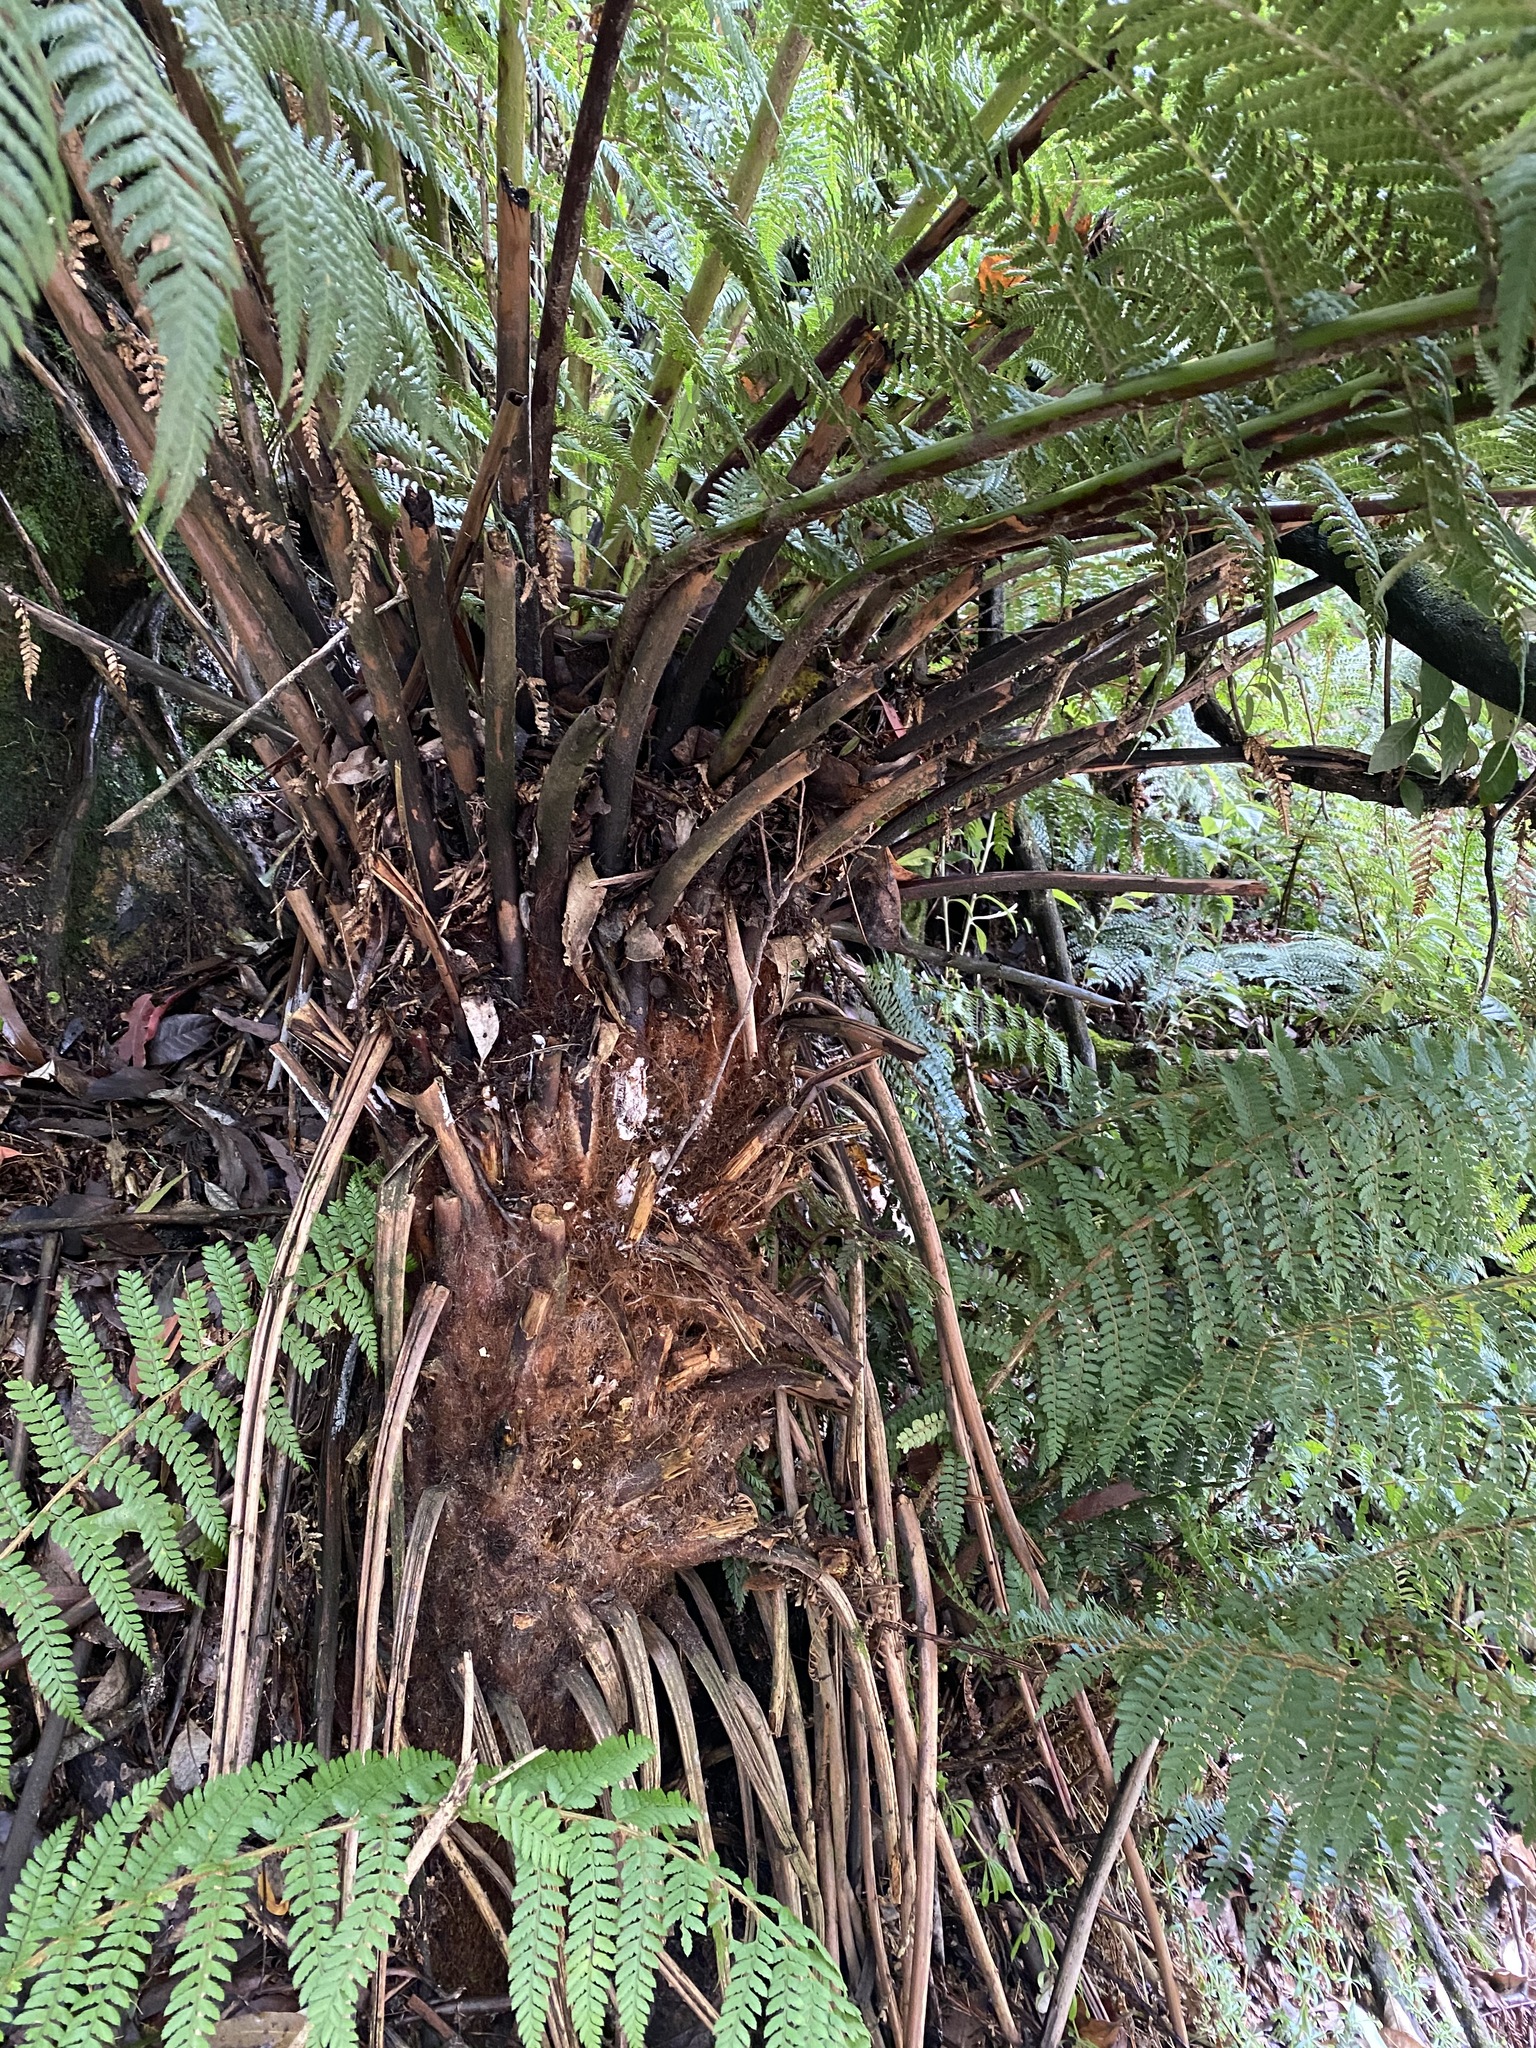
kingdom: Plantae
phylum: Tracheophyta
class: Polypodiopsida
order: Cyatheales
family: Dicksoniaceae
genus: Dicksonia
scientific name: Dicksonia antarctica
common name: Australian treefern
